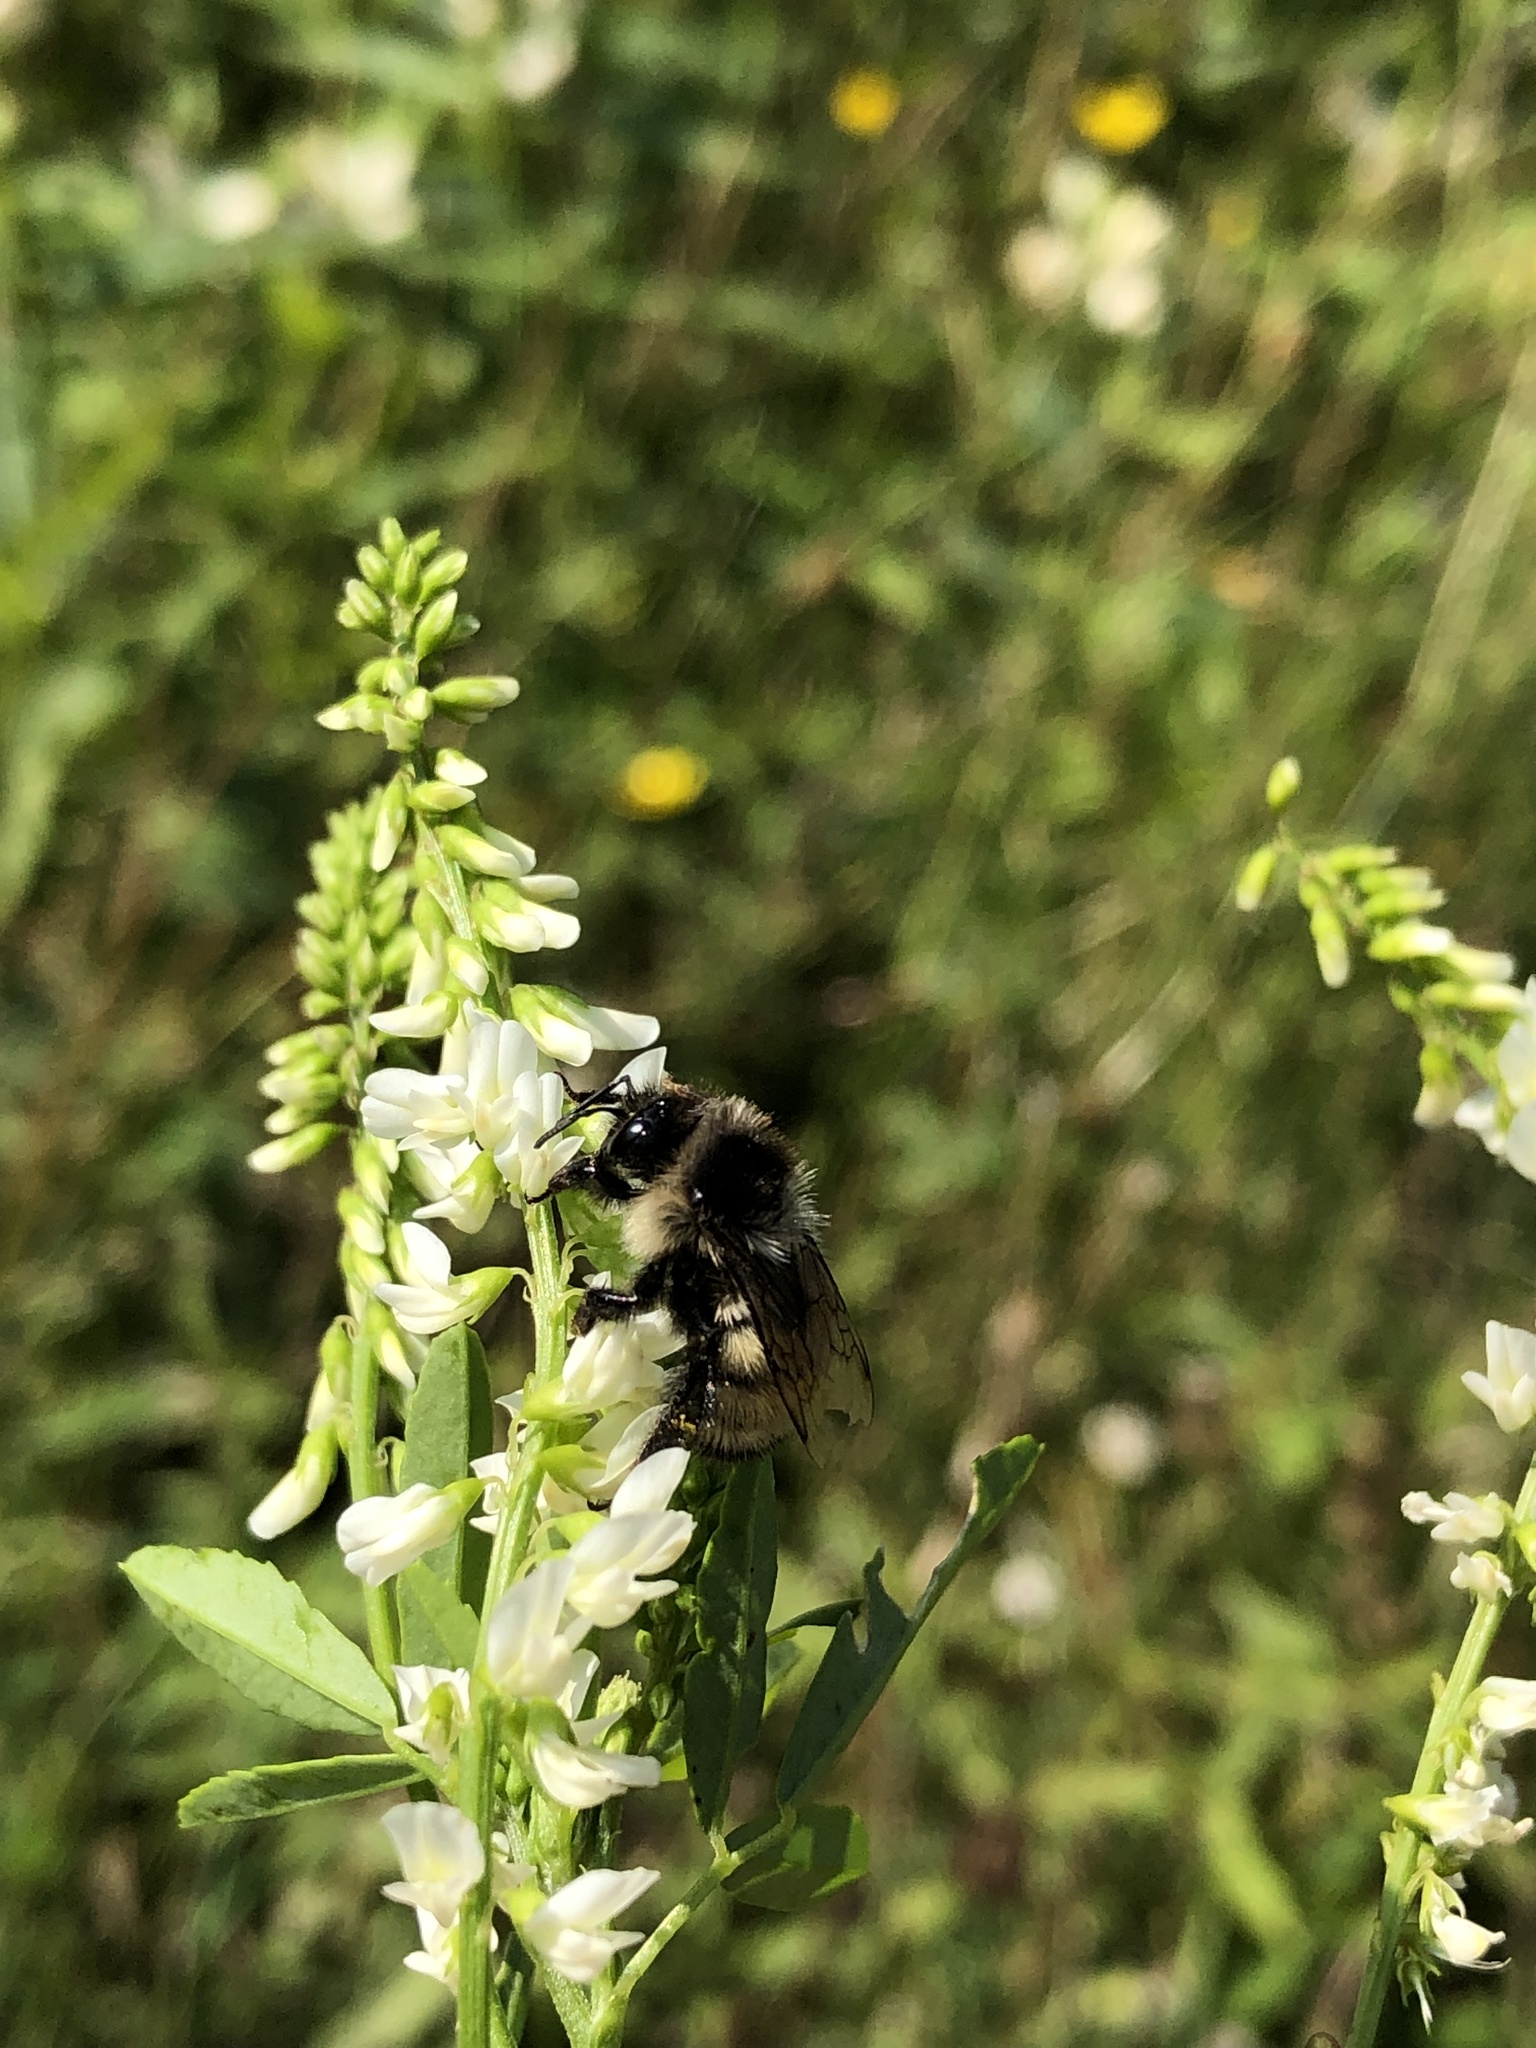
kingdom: Animalia
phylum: Arthropoda
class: Insecta
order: Hymenoptera
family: Apidae
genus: Bombus
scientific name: Bombus ternarius
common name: Tri-colored bumble bee
